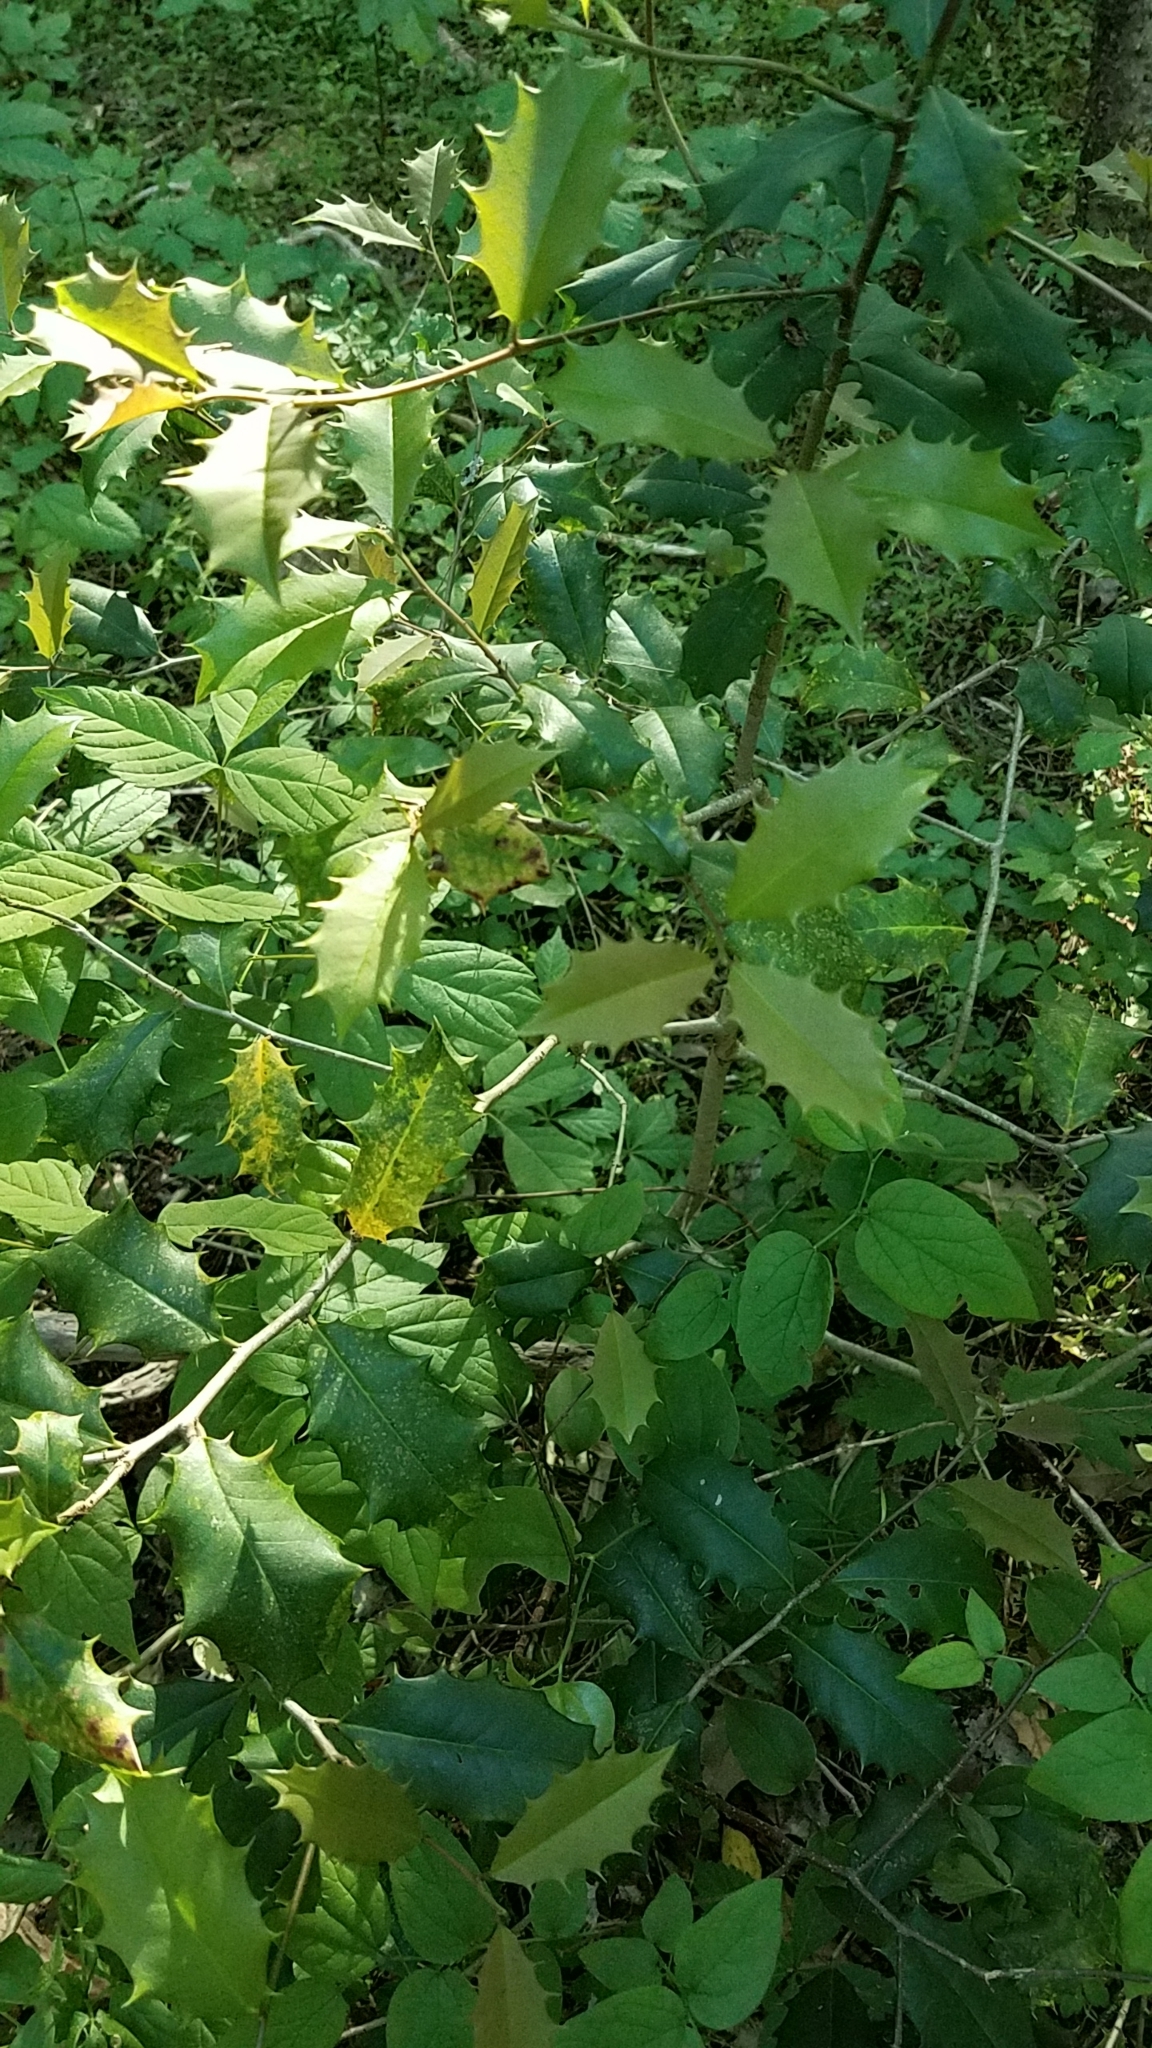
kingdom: Plantae
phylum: Tracheophyta
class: Magnoliopsida
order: Aquifoliales
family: Aquifoliaceae
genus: Ilex
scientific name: Ilex opaca
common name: American holly
